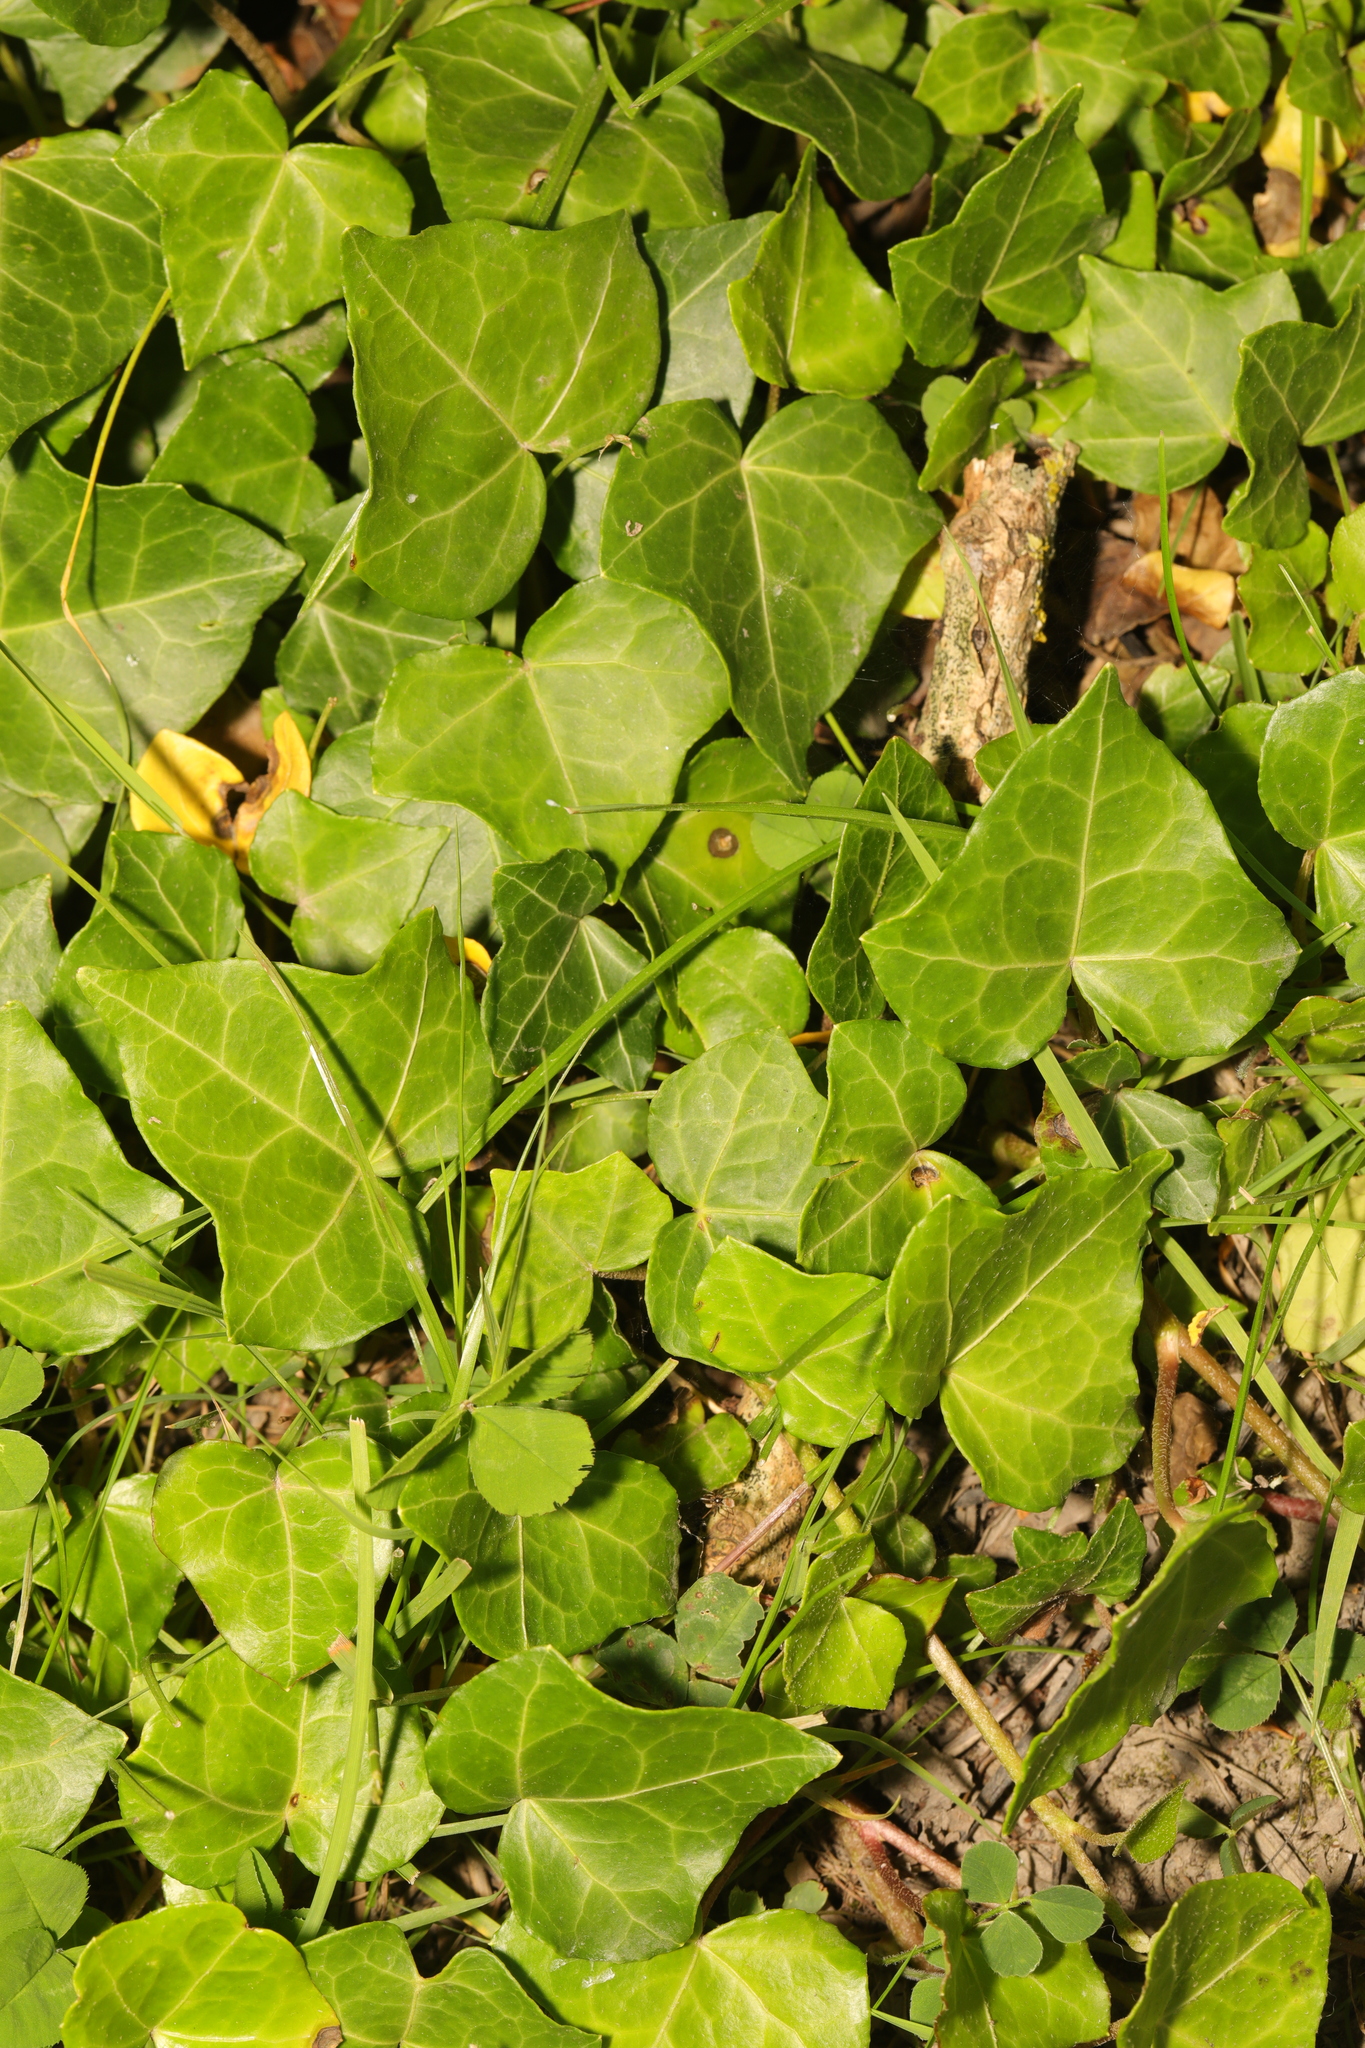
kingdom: Plantae
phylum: Tracheophyta
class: Magnoliopsida
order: Apiales
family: Araliaceae
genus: Hedera
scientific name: Hedera helix
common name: Ivy
